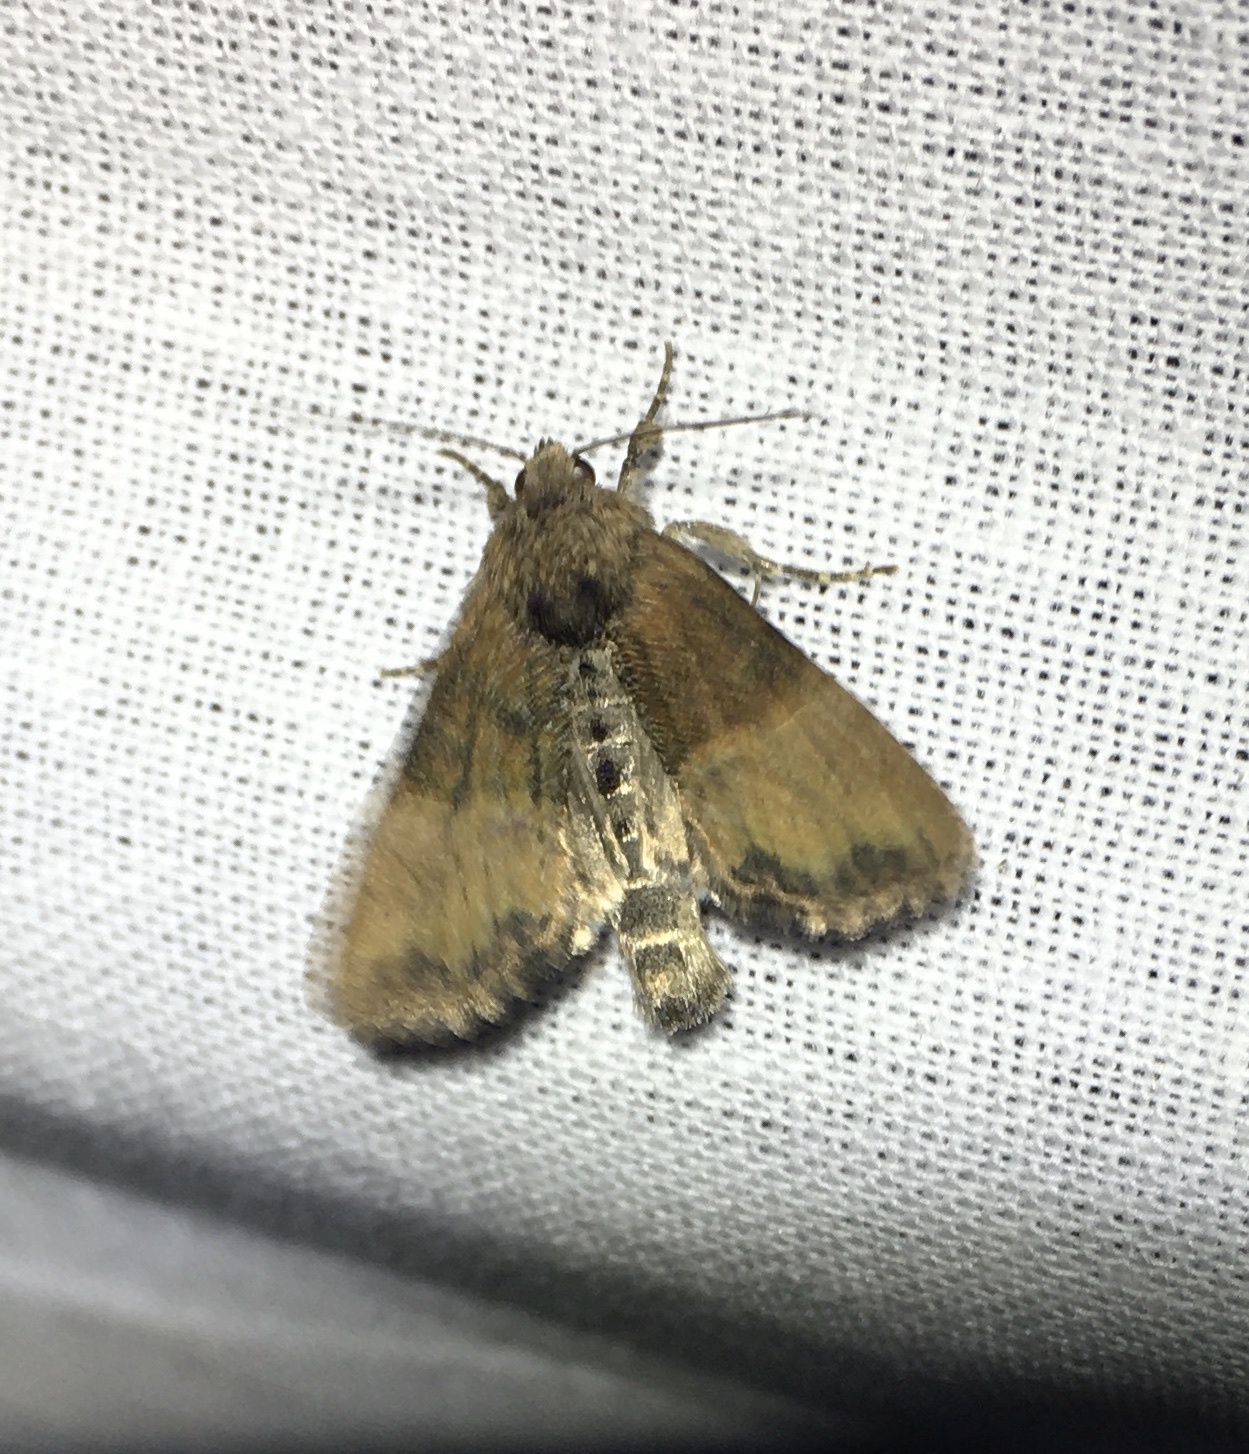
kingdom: Animalia
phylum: Arthropoda
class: Insecta
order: Lepidoptera
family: Noctuidae
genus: Mesoligia
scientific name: Mesoligia furuncula
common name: Cloaked minor
